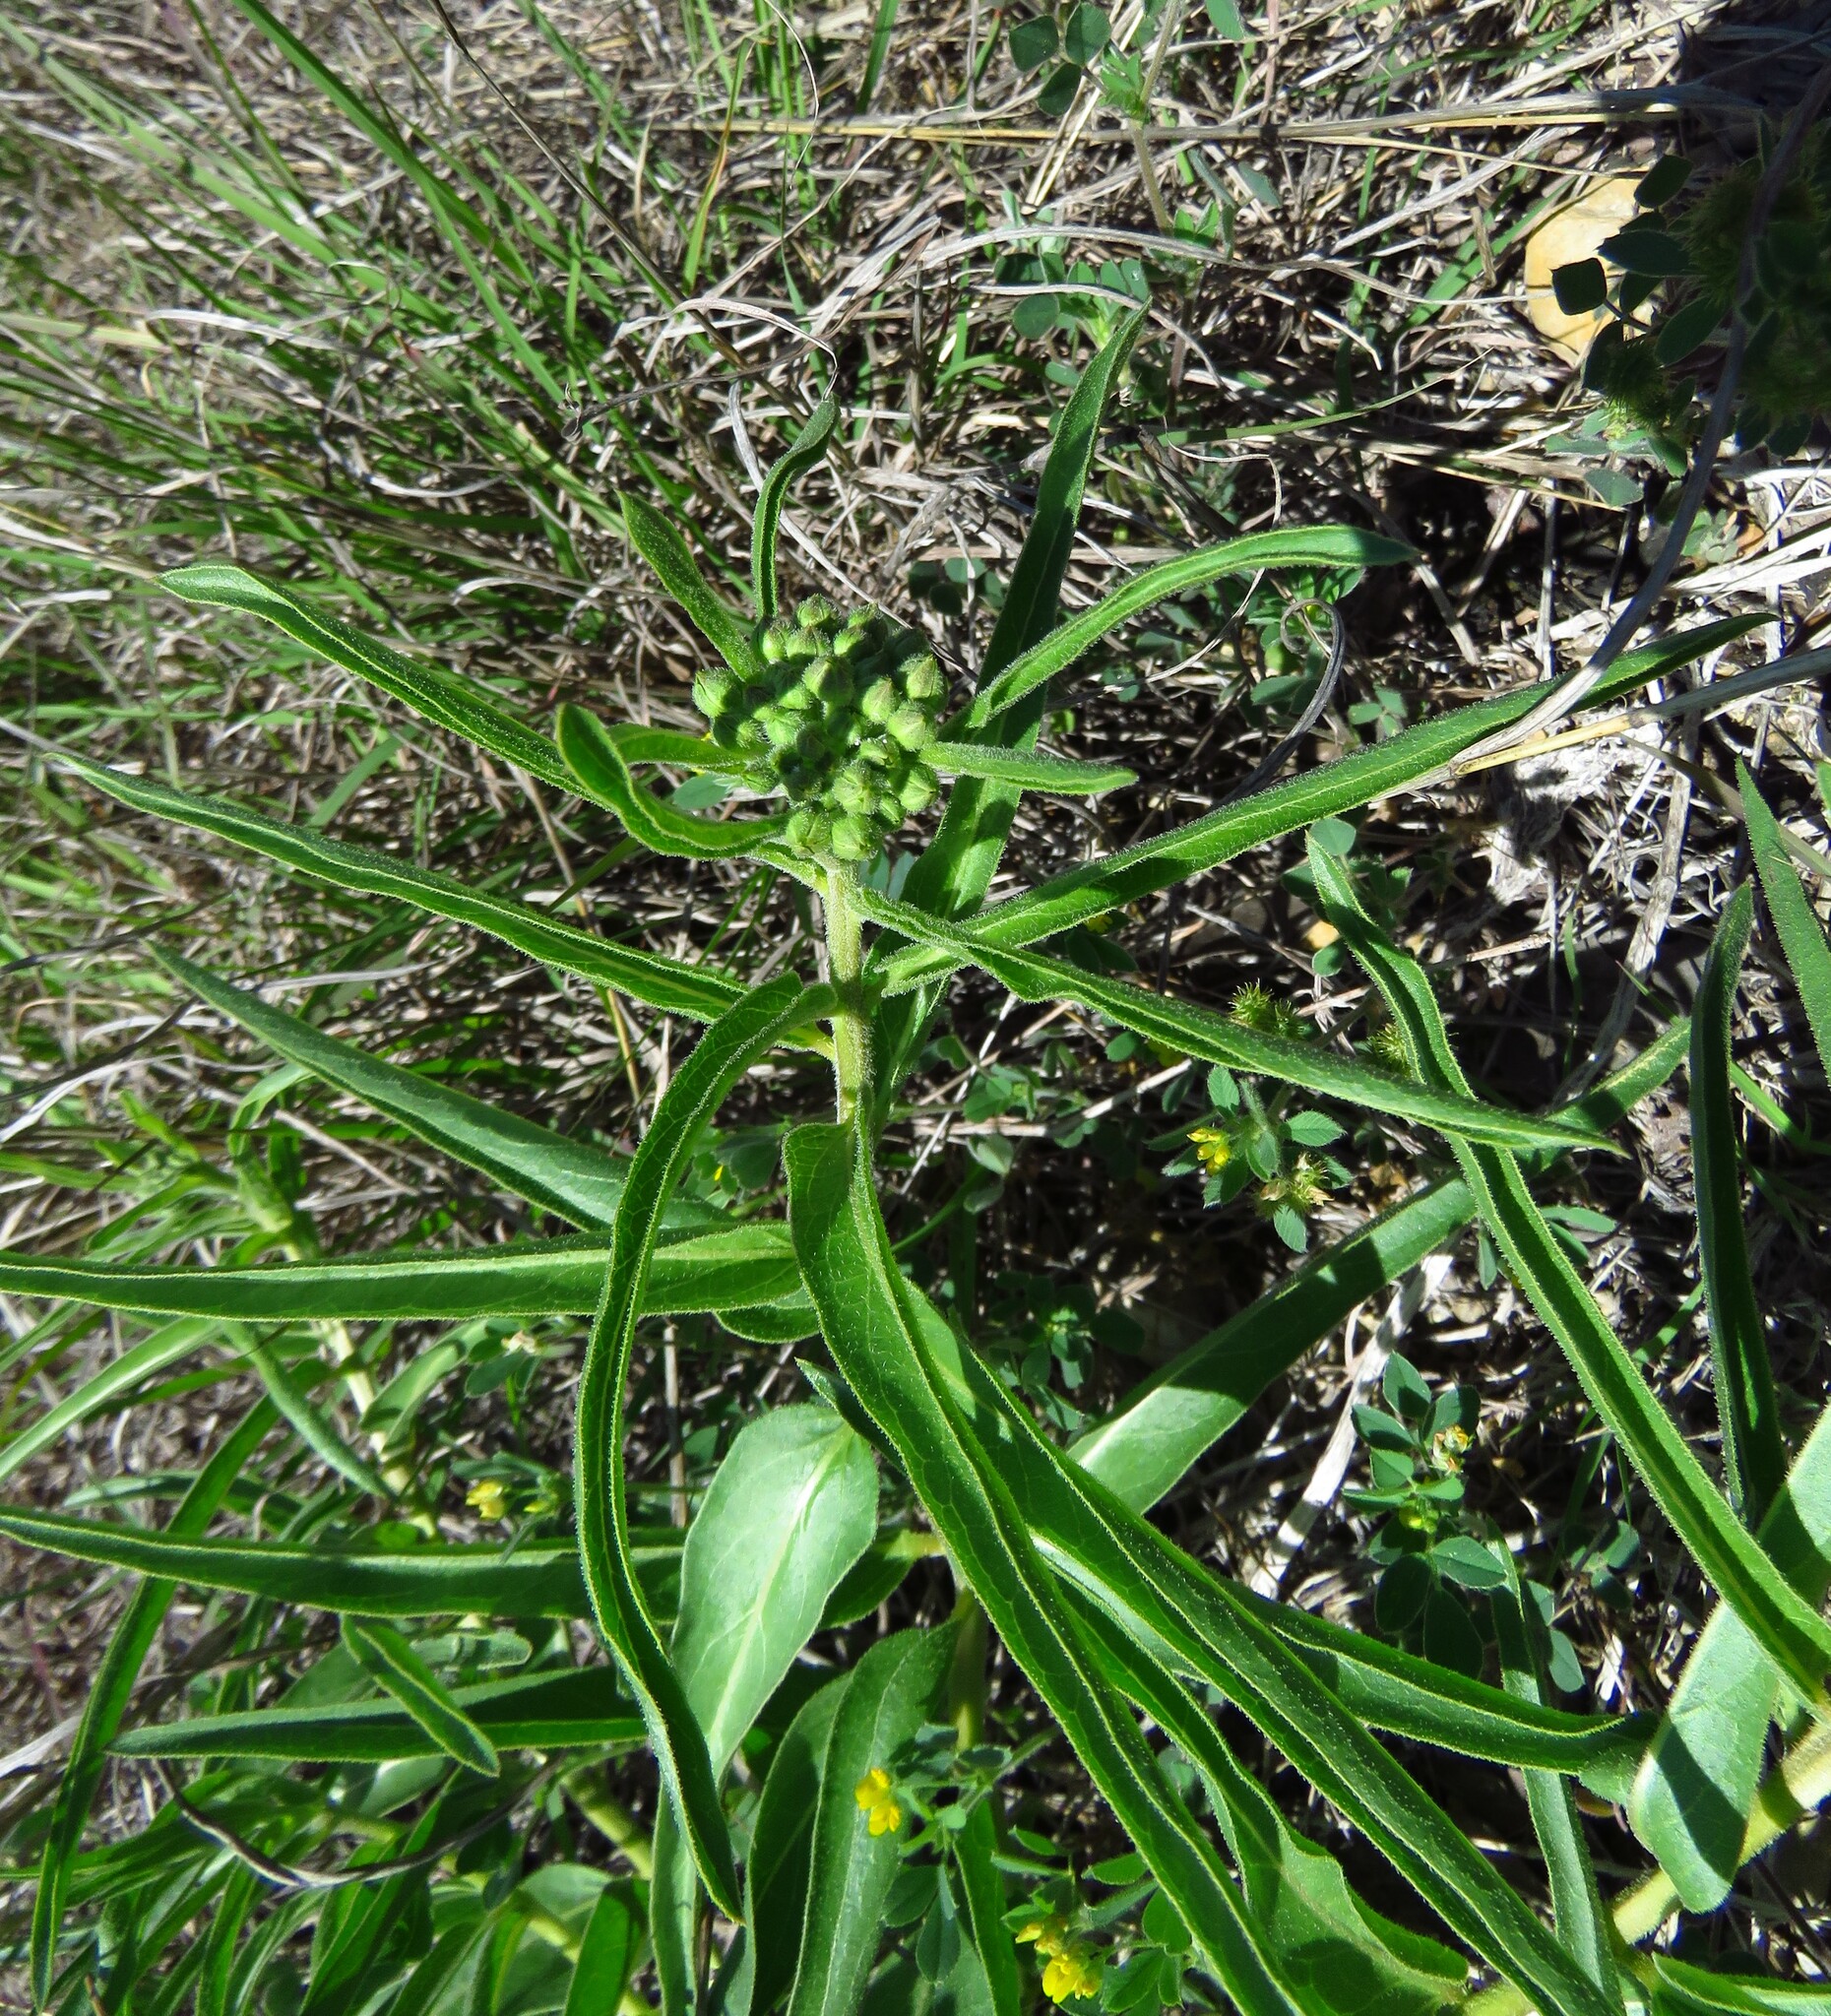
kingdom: Plantae
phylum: Tracheophyta
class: Magnoliopsida
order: Gentianales
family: Apocynaceae
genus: Asclepias
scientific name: Asclepias asperula
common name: Antelope horns
